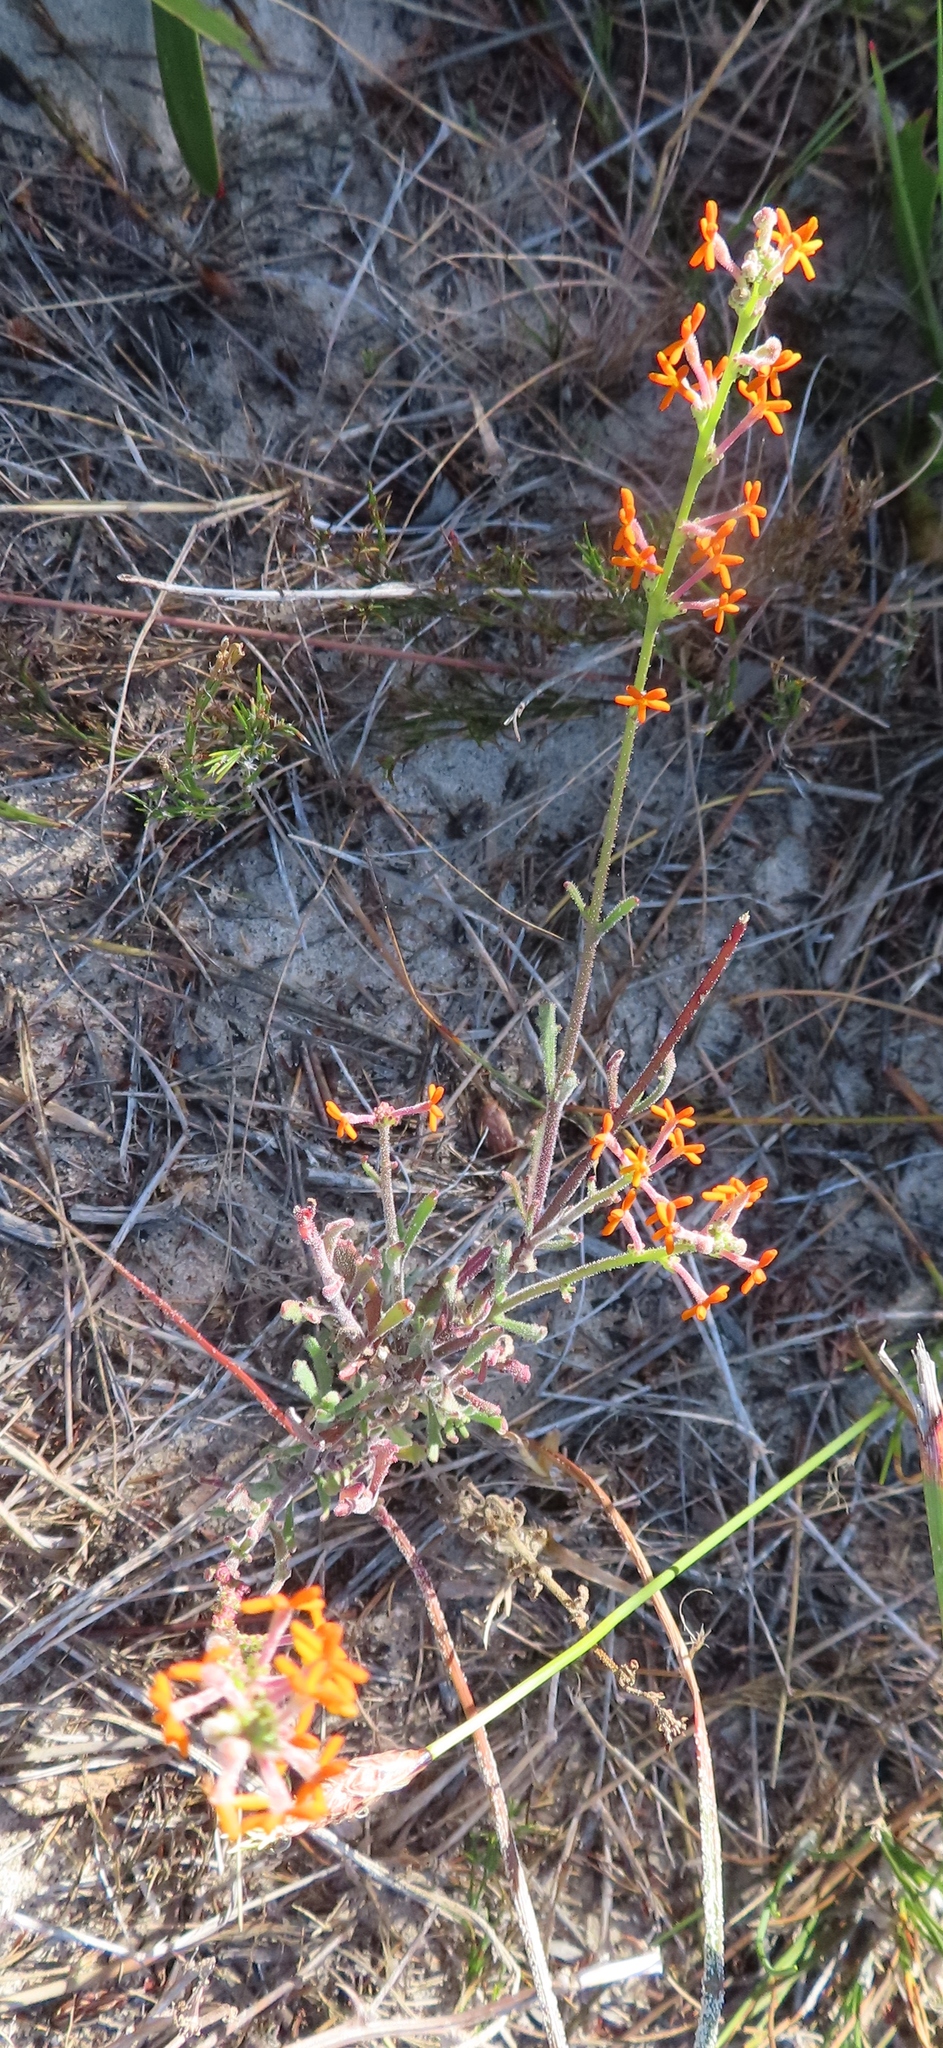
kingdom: Plantae
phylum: Tracheophyta
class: Magnoliopsida
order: Lamiales
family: Scrophulariaceae
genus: Manulea
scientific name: Manulea rubra
